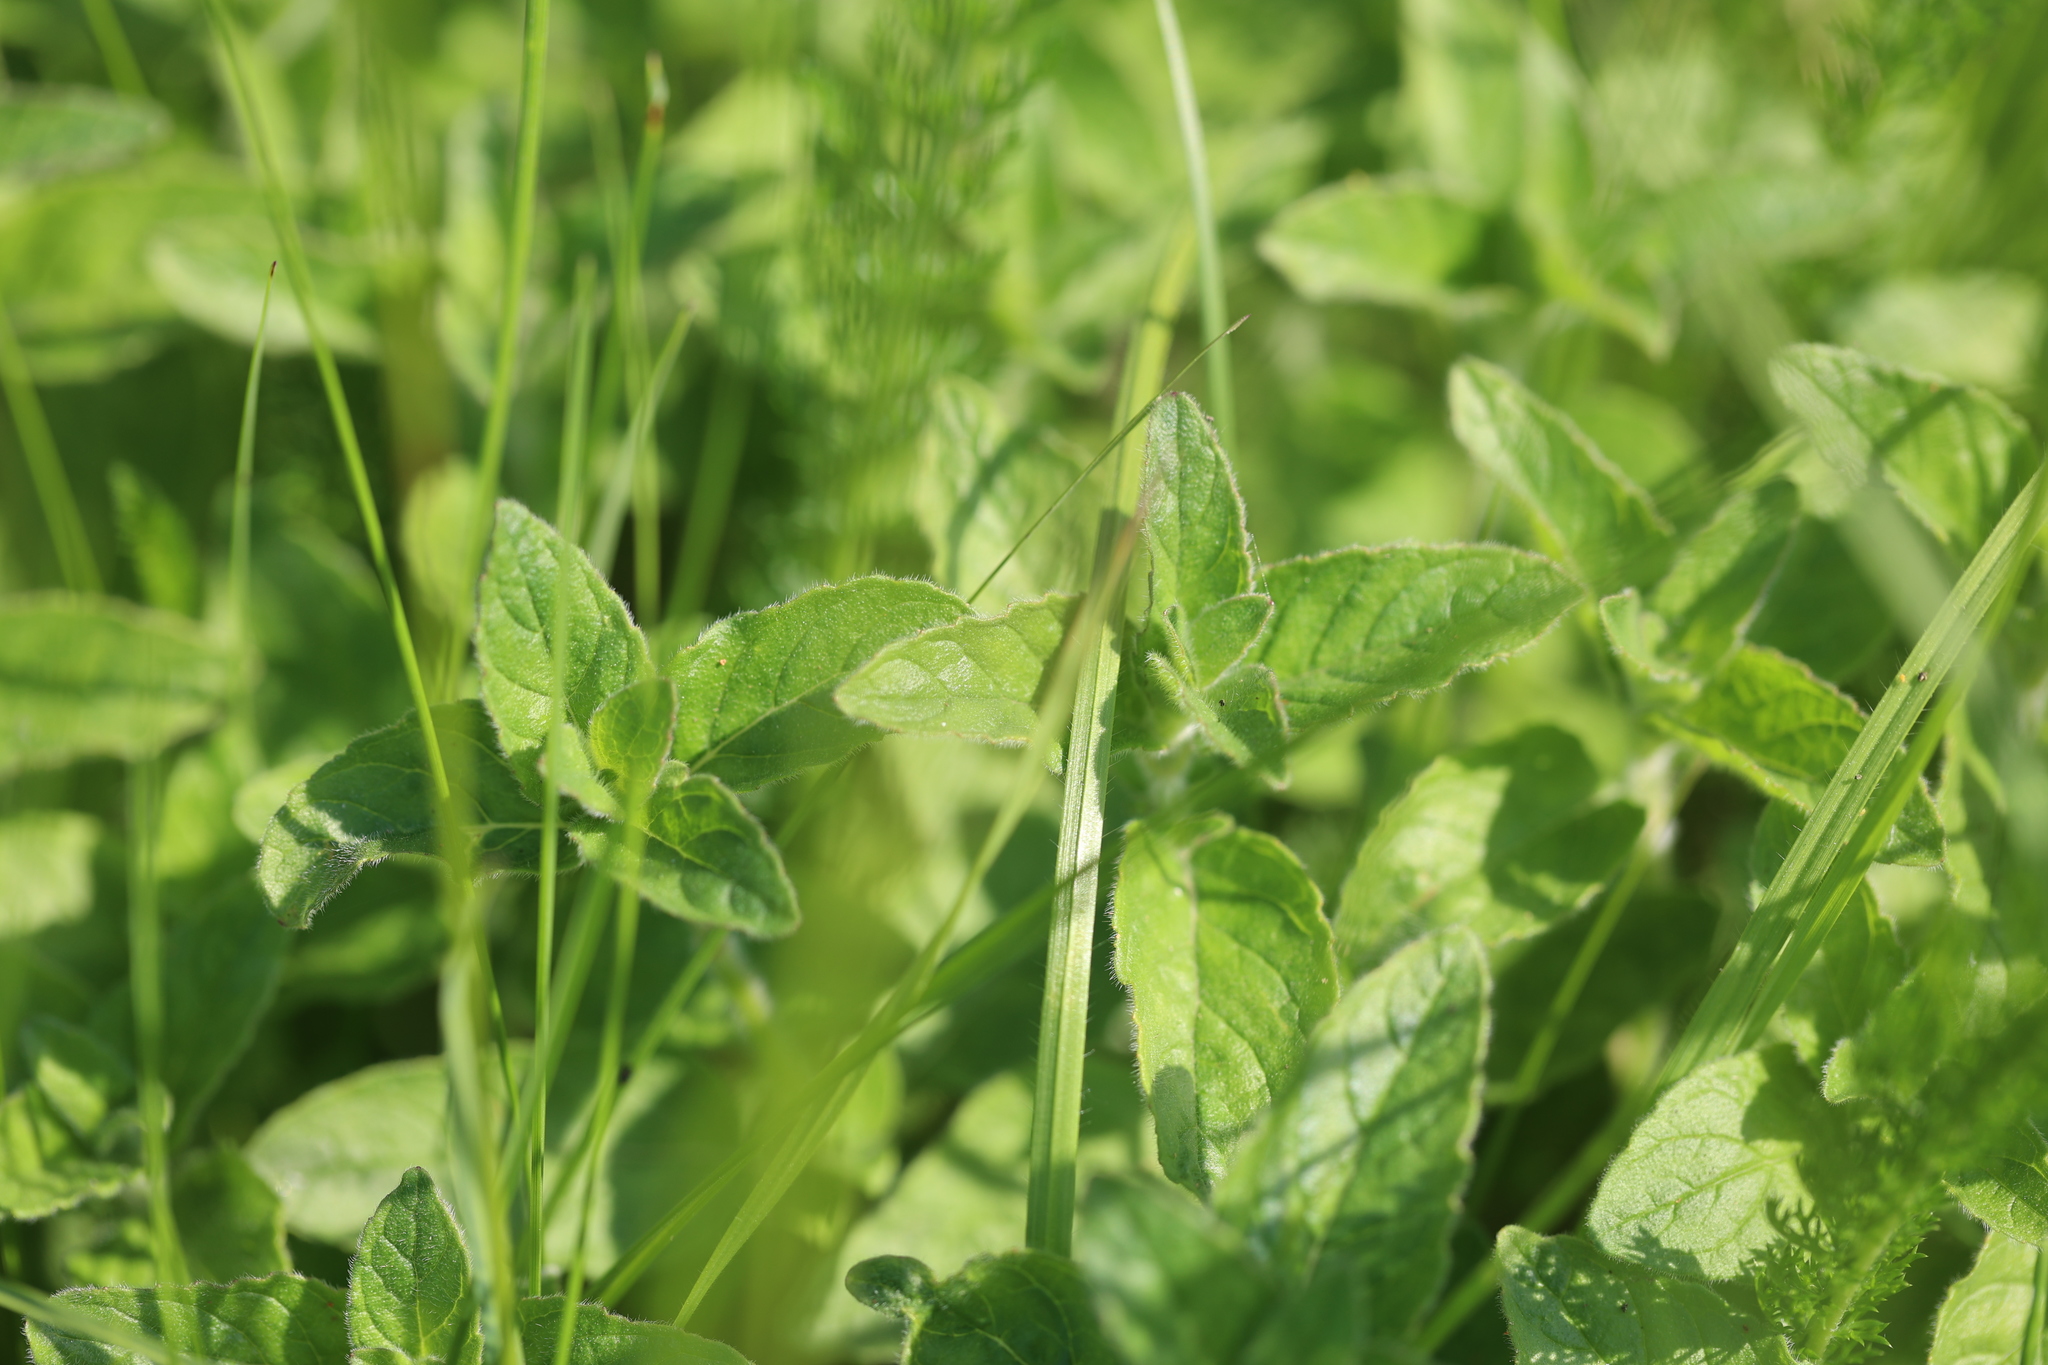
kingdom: Plantae
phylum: Tracheophyta
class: Magnoliopsida
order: Lamiales
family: Lamiaceae
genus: Origanum
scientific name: Origanum vulgare
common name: Wild marjoram
